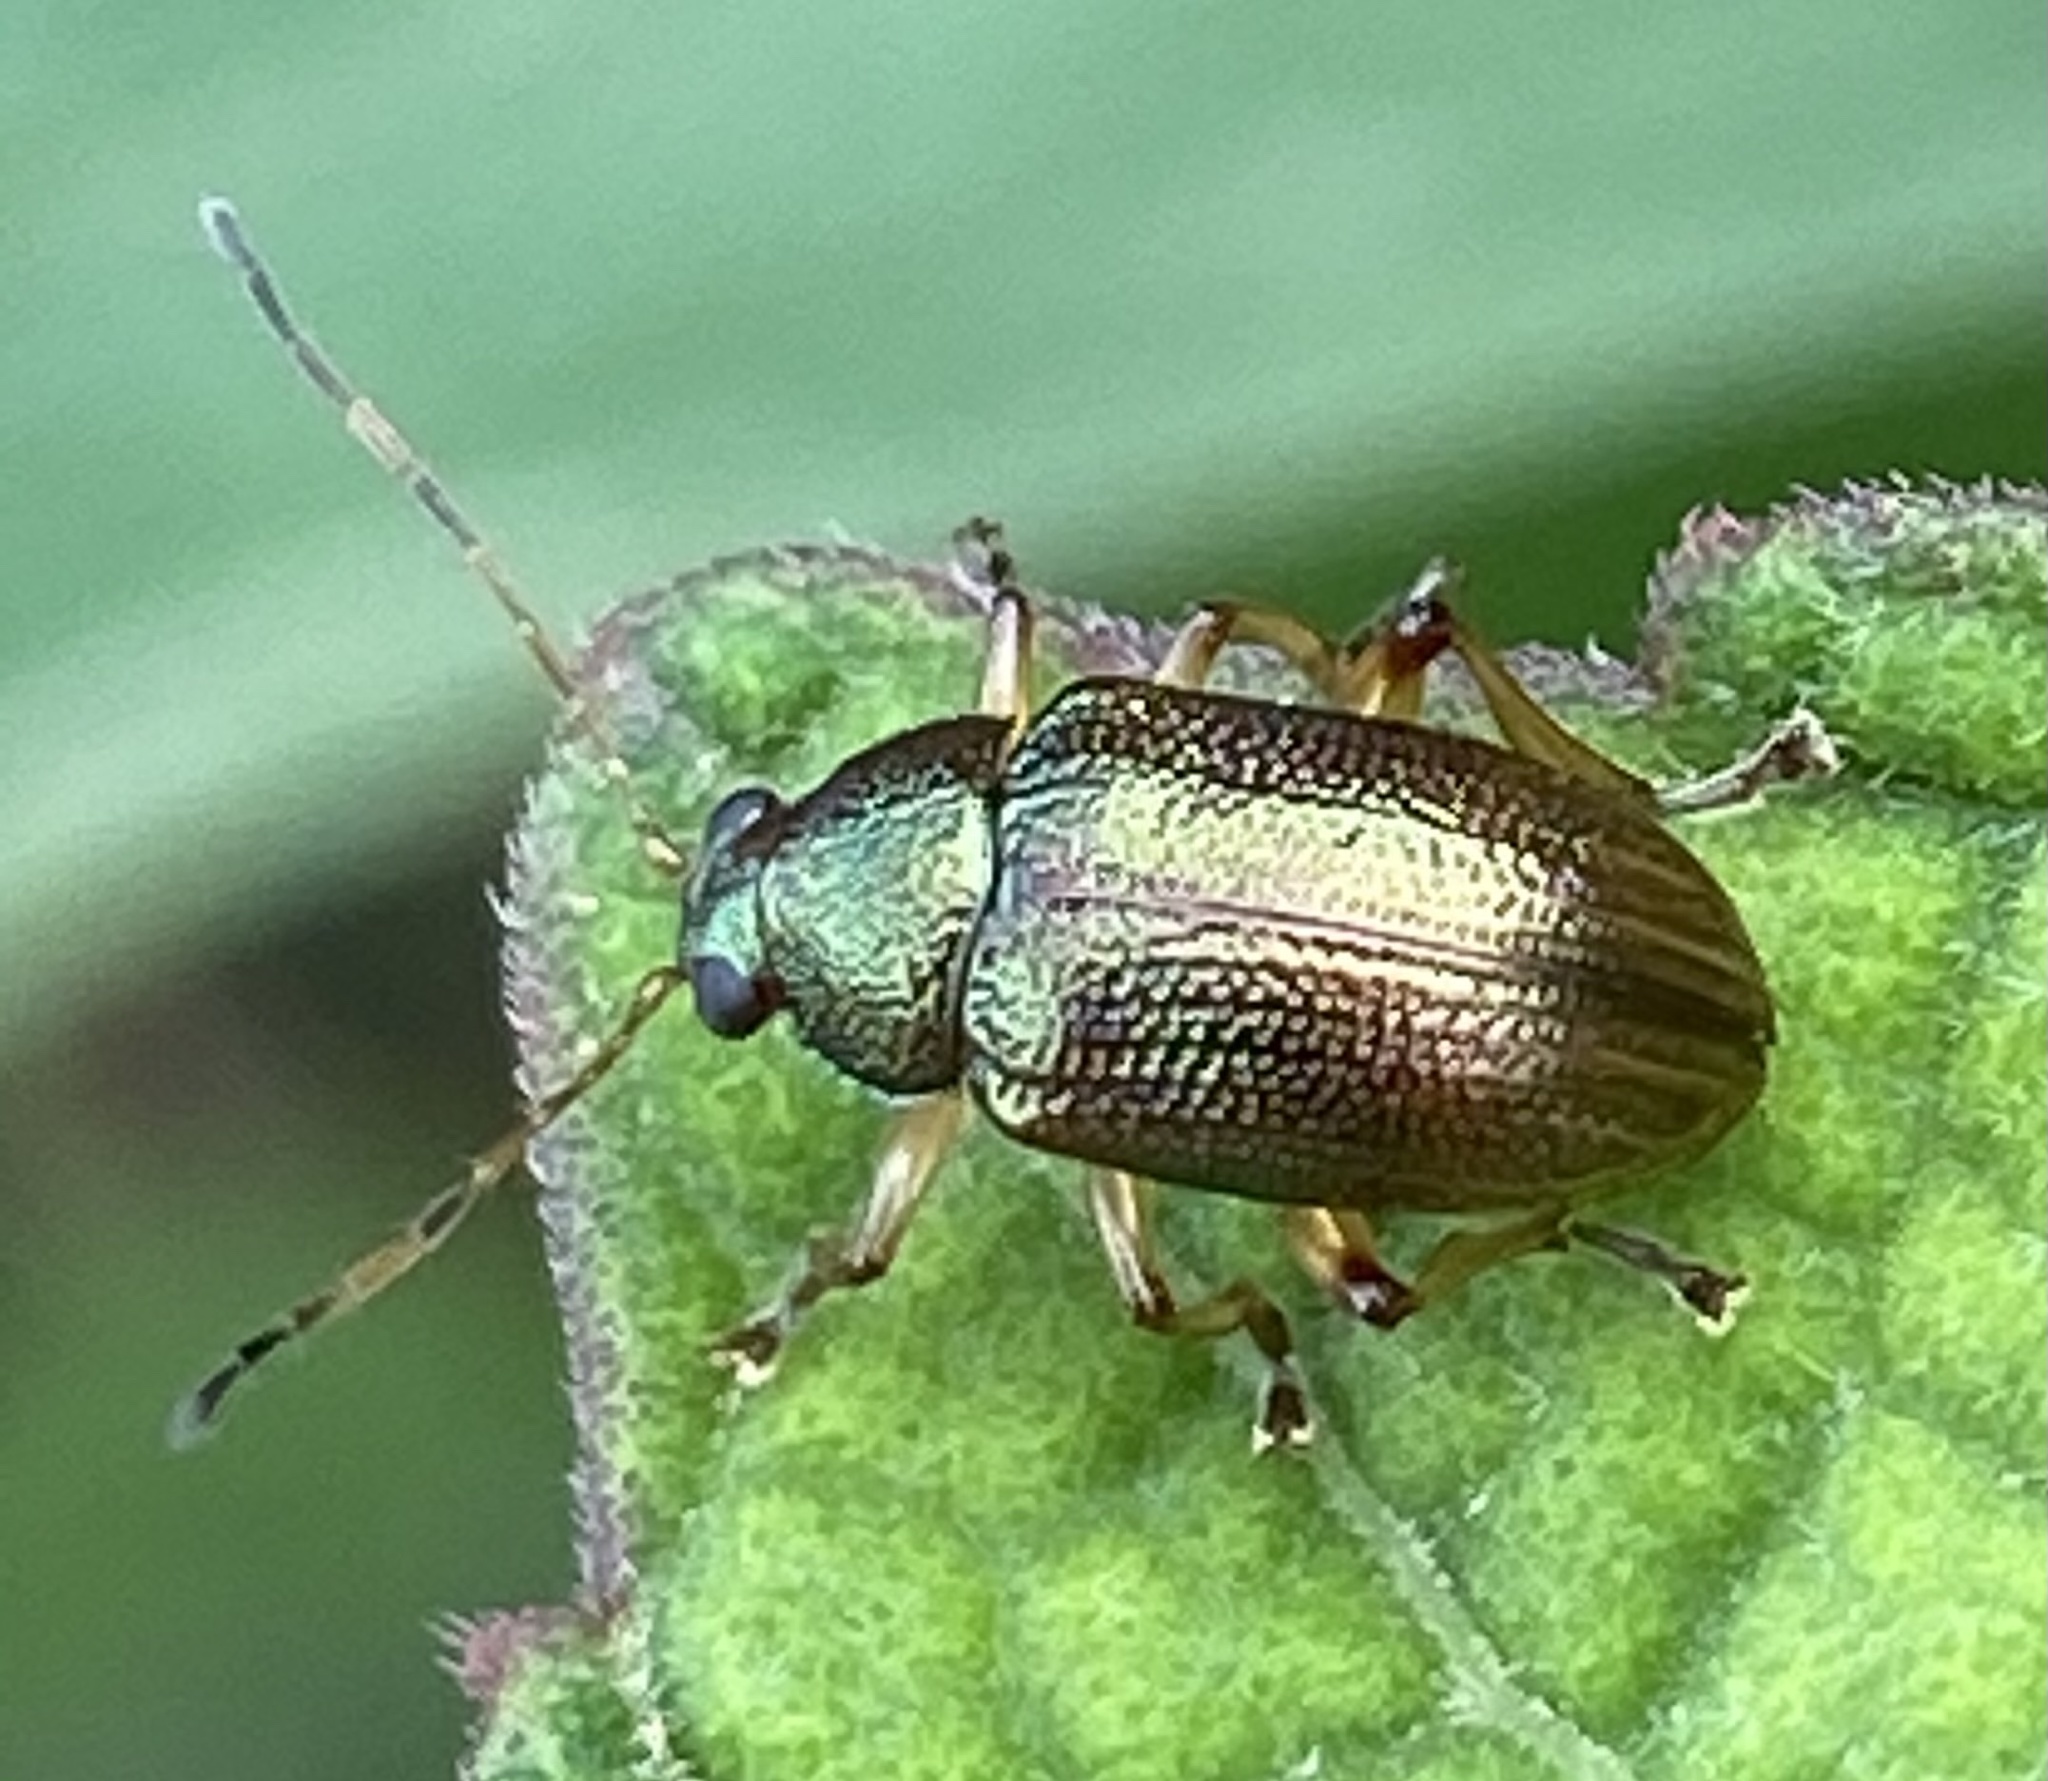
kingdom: Animalia
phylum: Arthropoda
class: Insecta
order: Coleoptera
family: Chrysomelidae
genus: Colaspis
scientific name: Colaspis aerea
